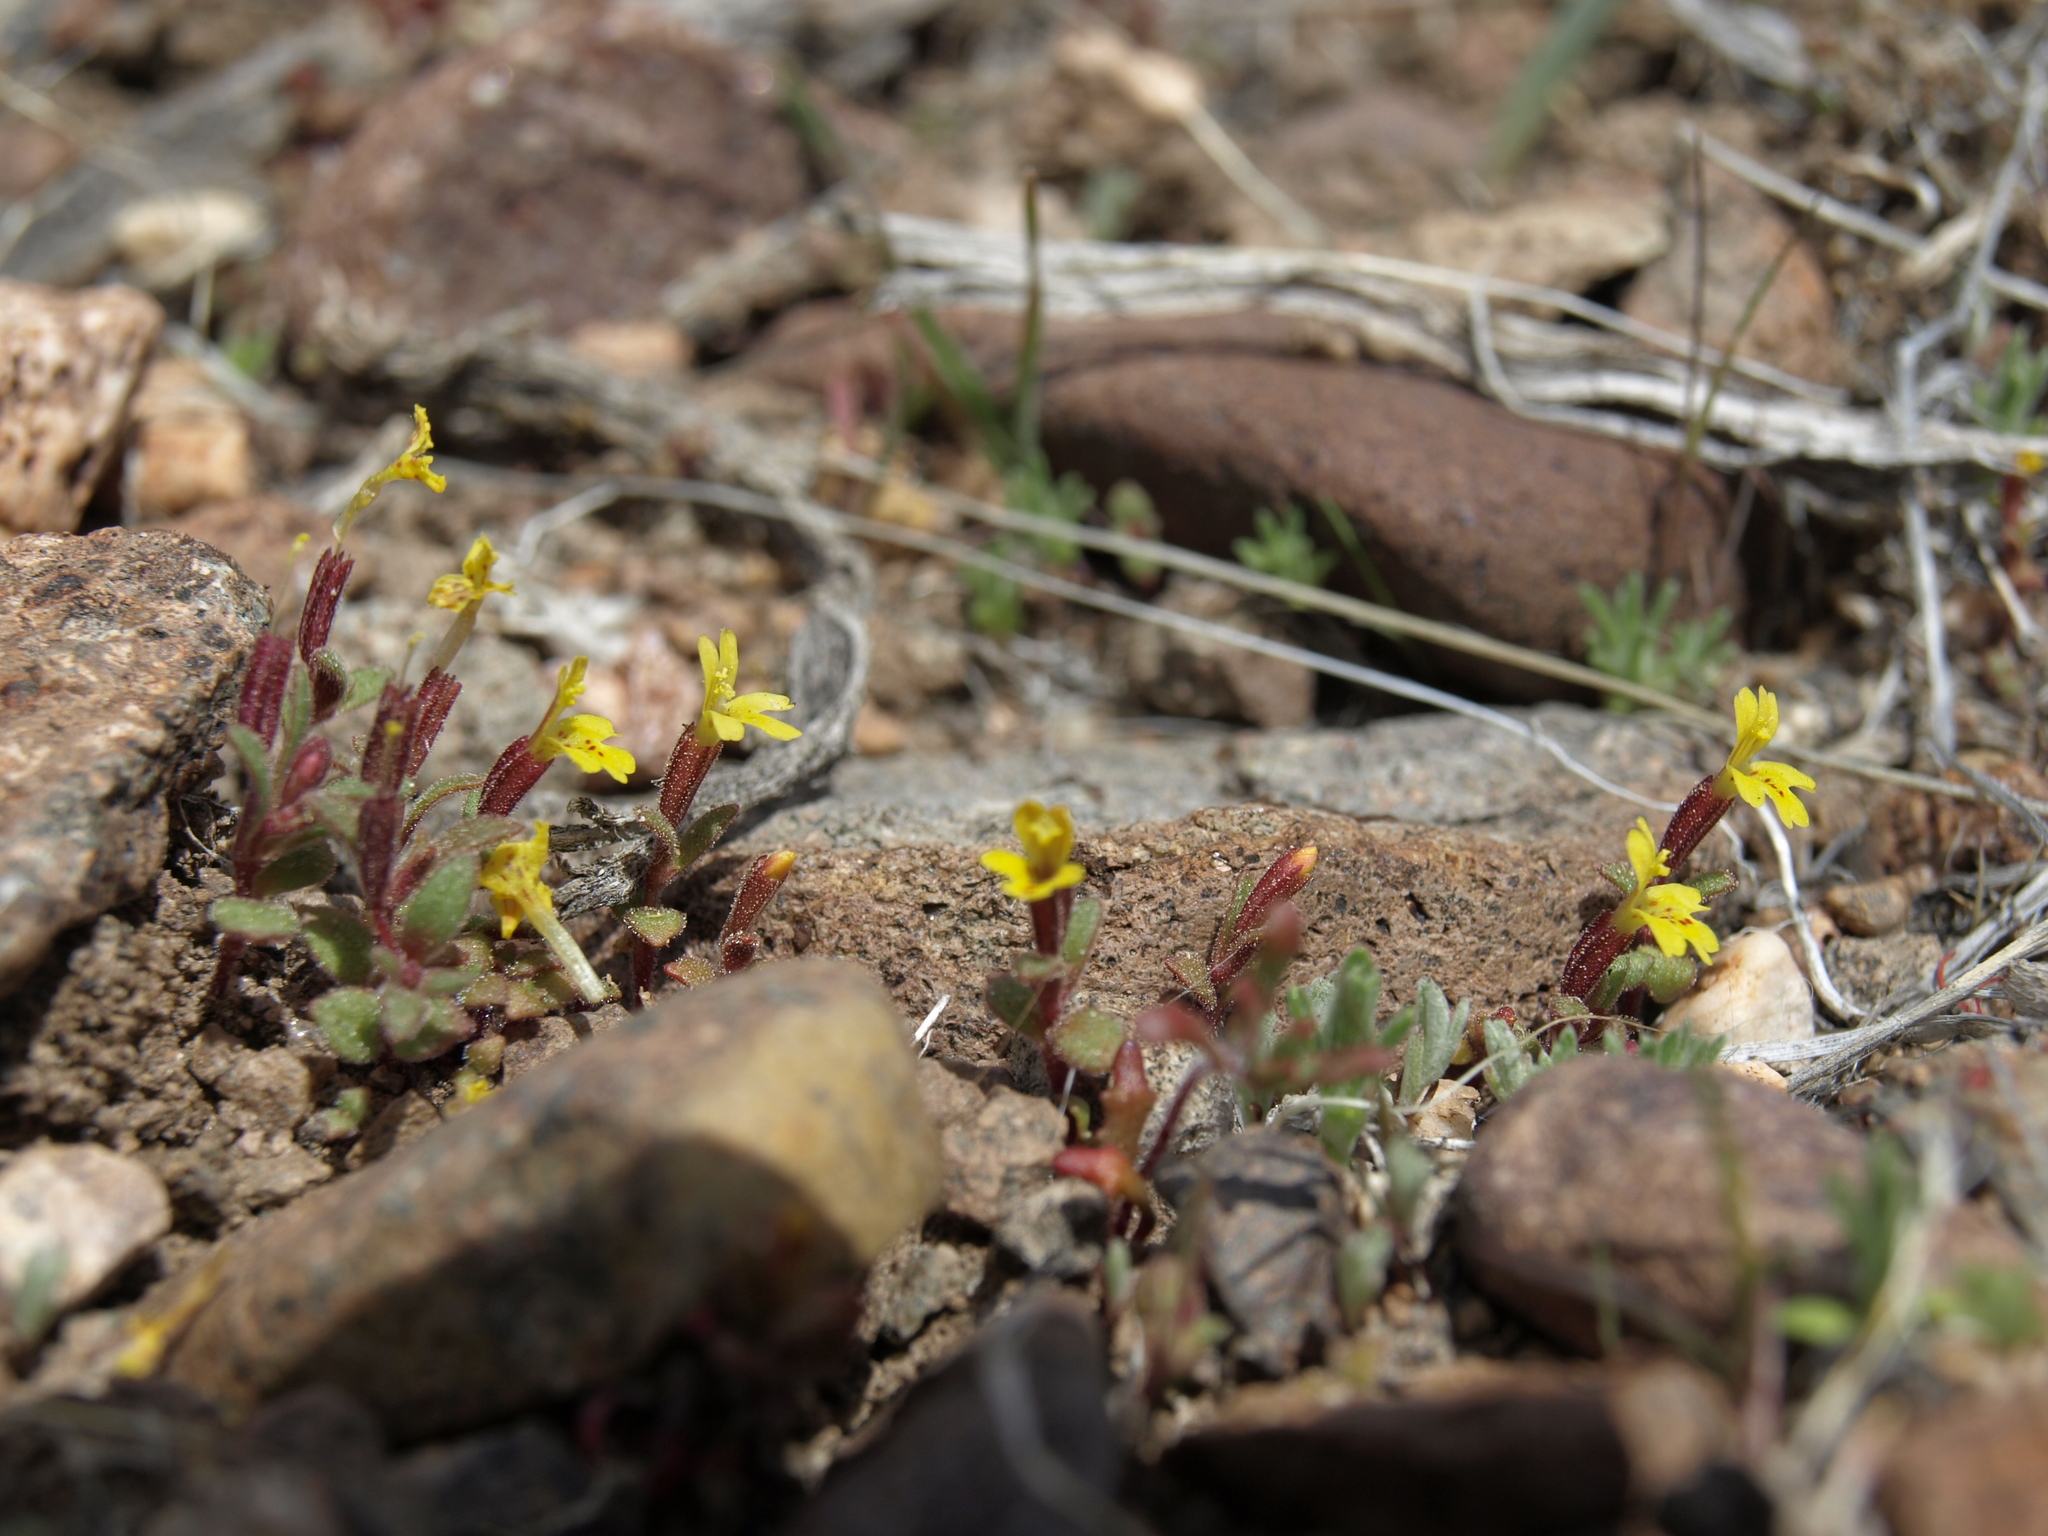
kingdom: Plantae
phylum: Tracheophyta
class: Magnoliopsida
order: Lamiales
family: Phrymaceae
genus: Erythranthe
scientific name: Erythranthe suksdorfii
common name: Suksdorf's monkeyflower
